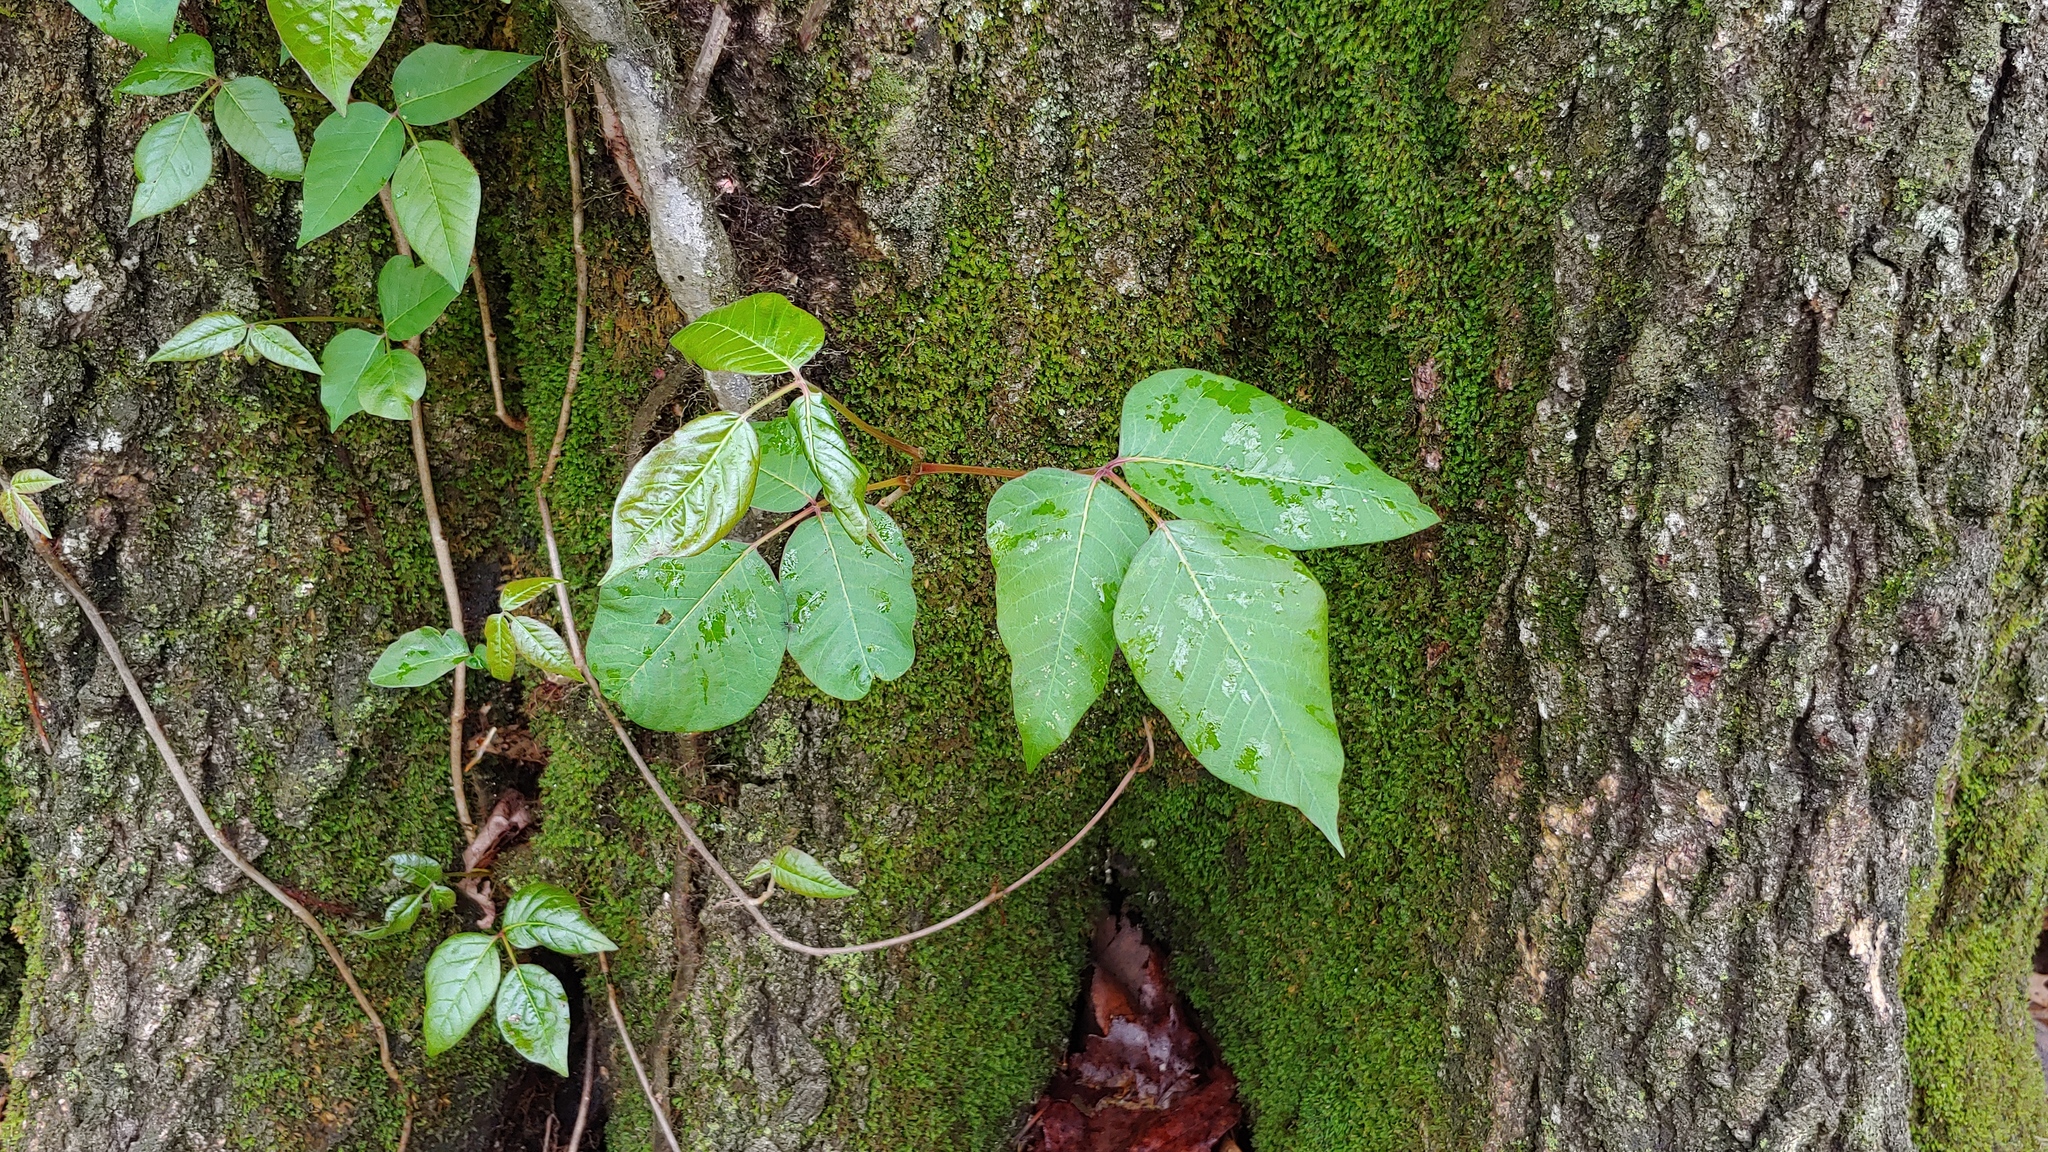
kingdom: Plantae
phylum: Tracheophyta
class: Magnoliopsida
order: Sapindales
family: Anacardiaceae
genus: Toxicodendron
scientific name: Toxicodendron radicans
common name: Poison ivy
